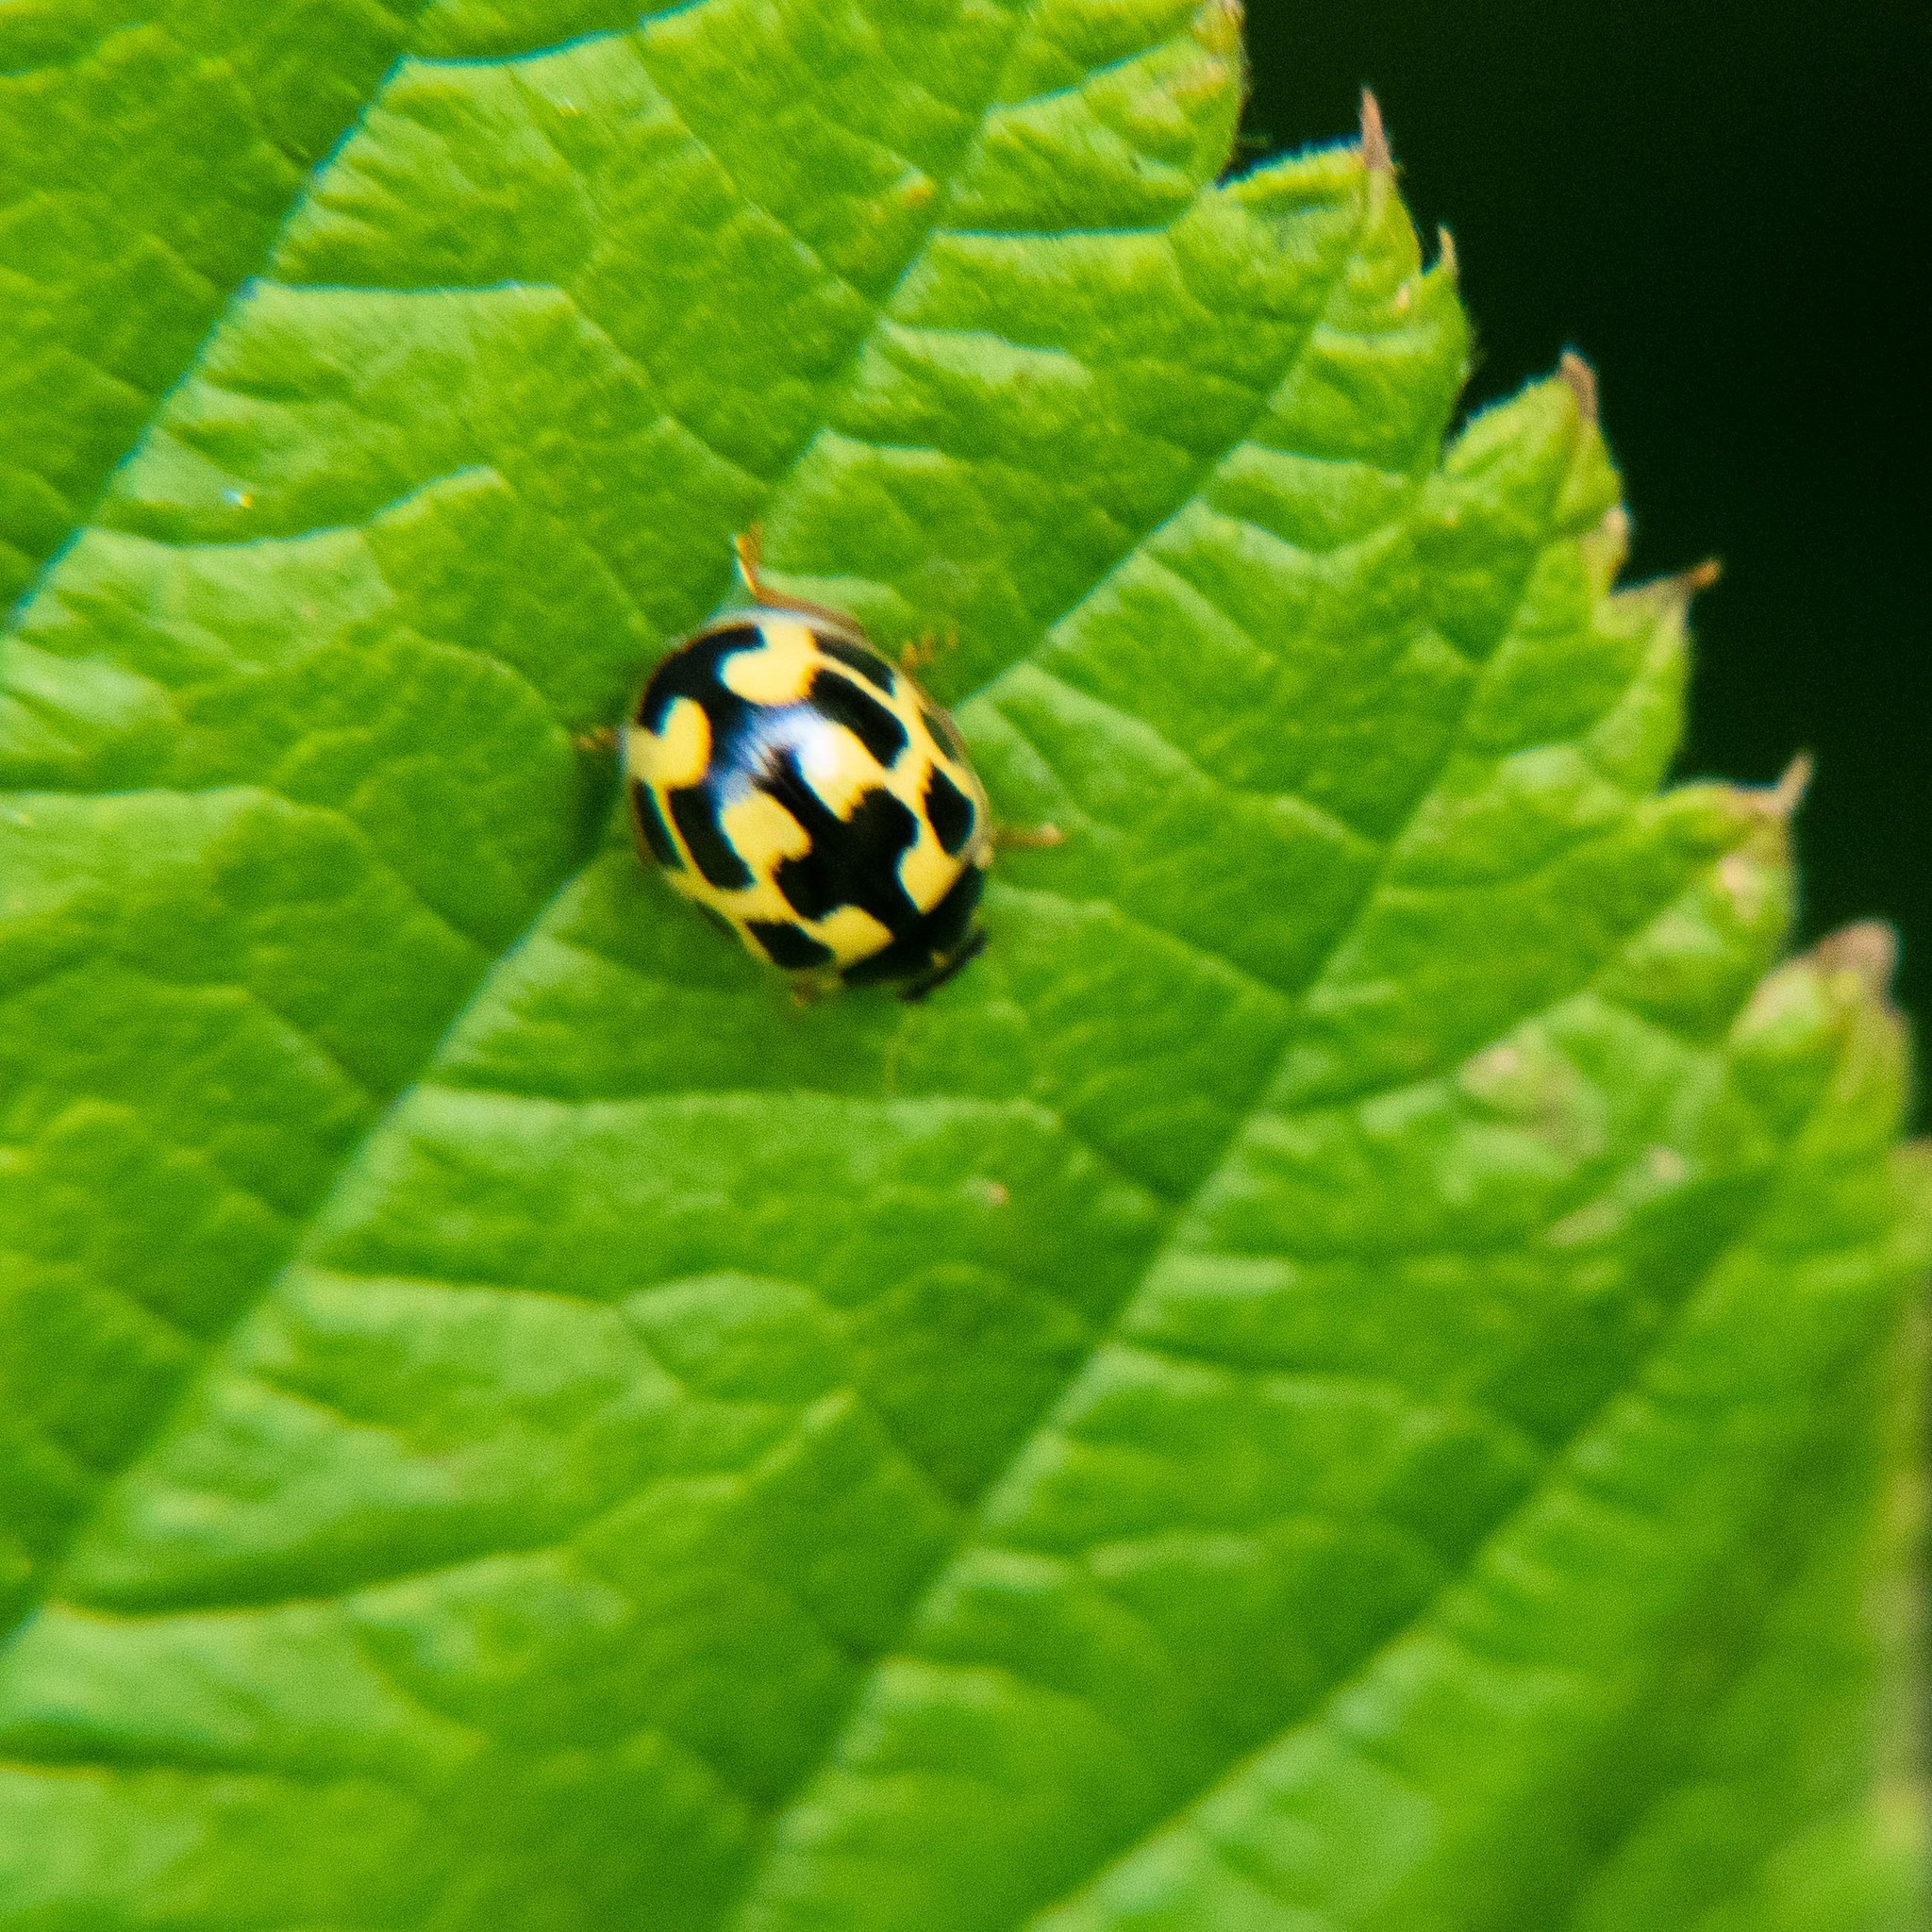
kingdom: Animalia
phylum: Arthropoda
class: Insecta
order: Coleoptera
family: Coccinellidae
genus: Propylaea
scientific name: Propylaea quatuordecimpunctata
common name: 14-spotted ladybird beetle
